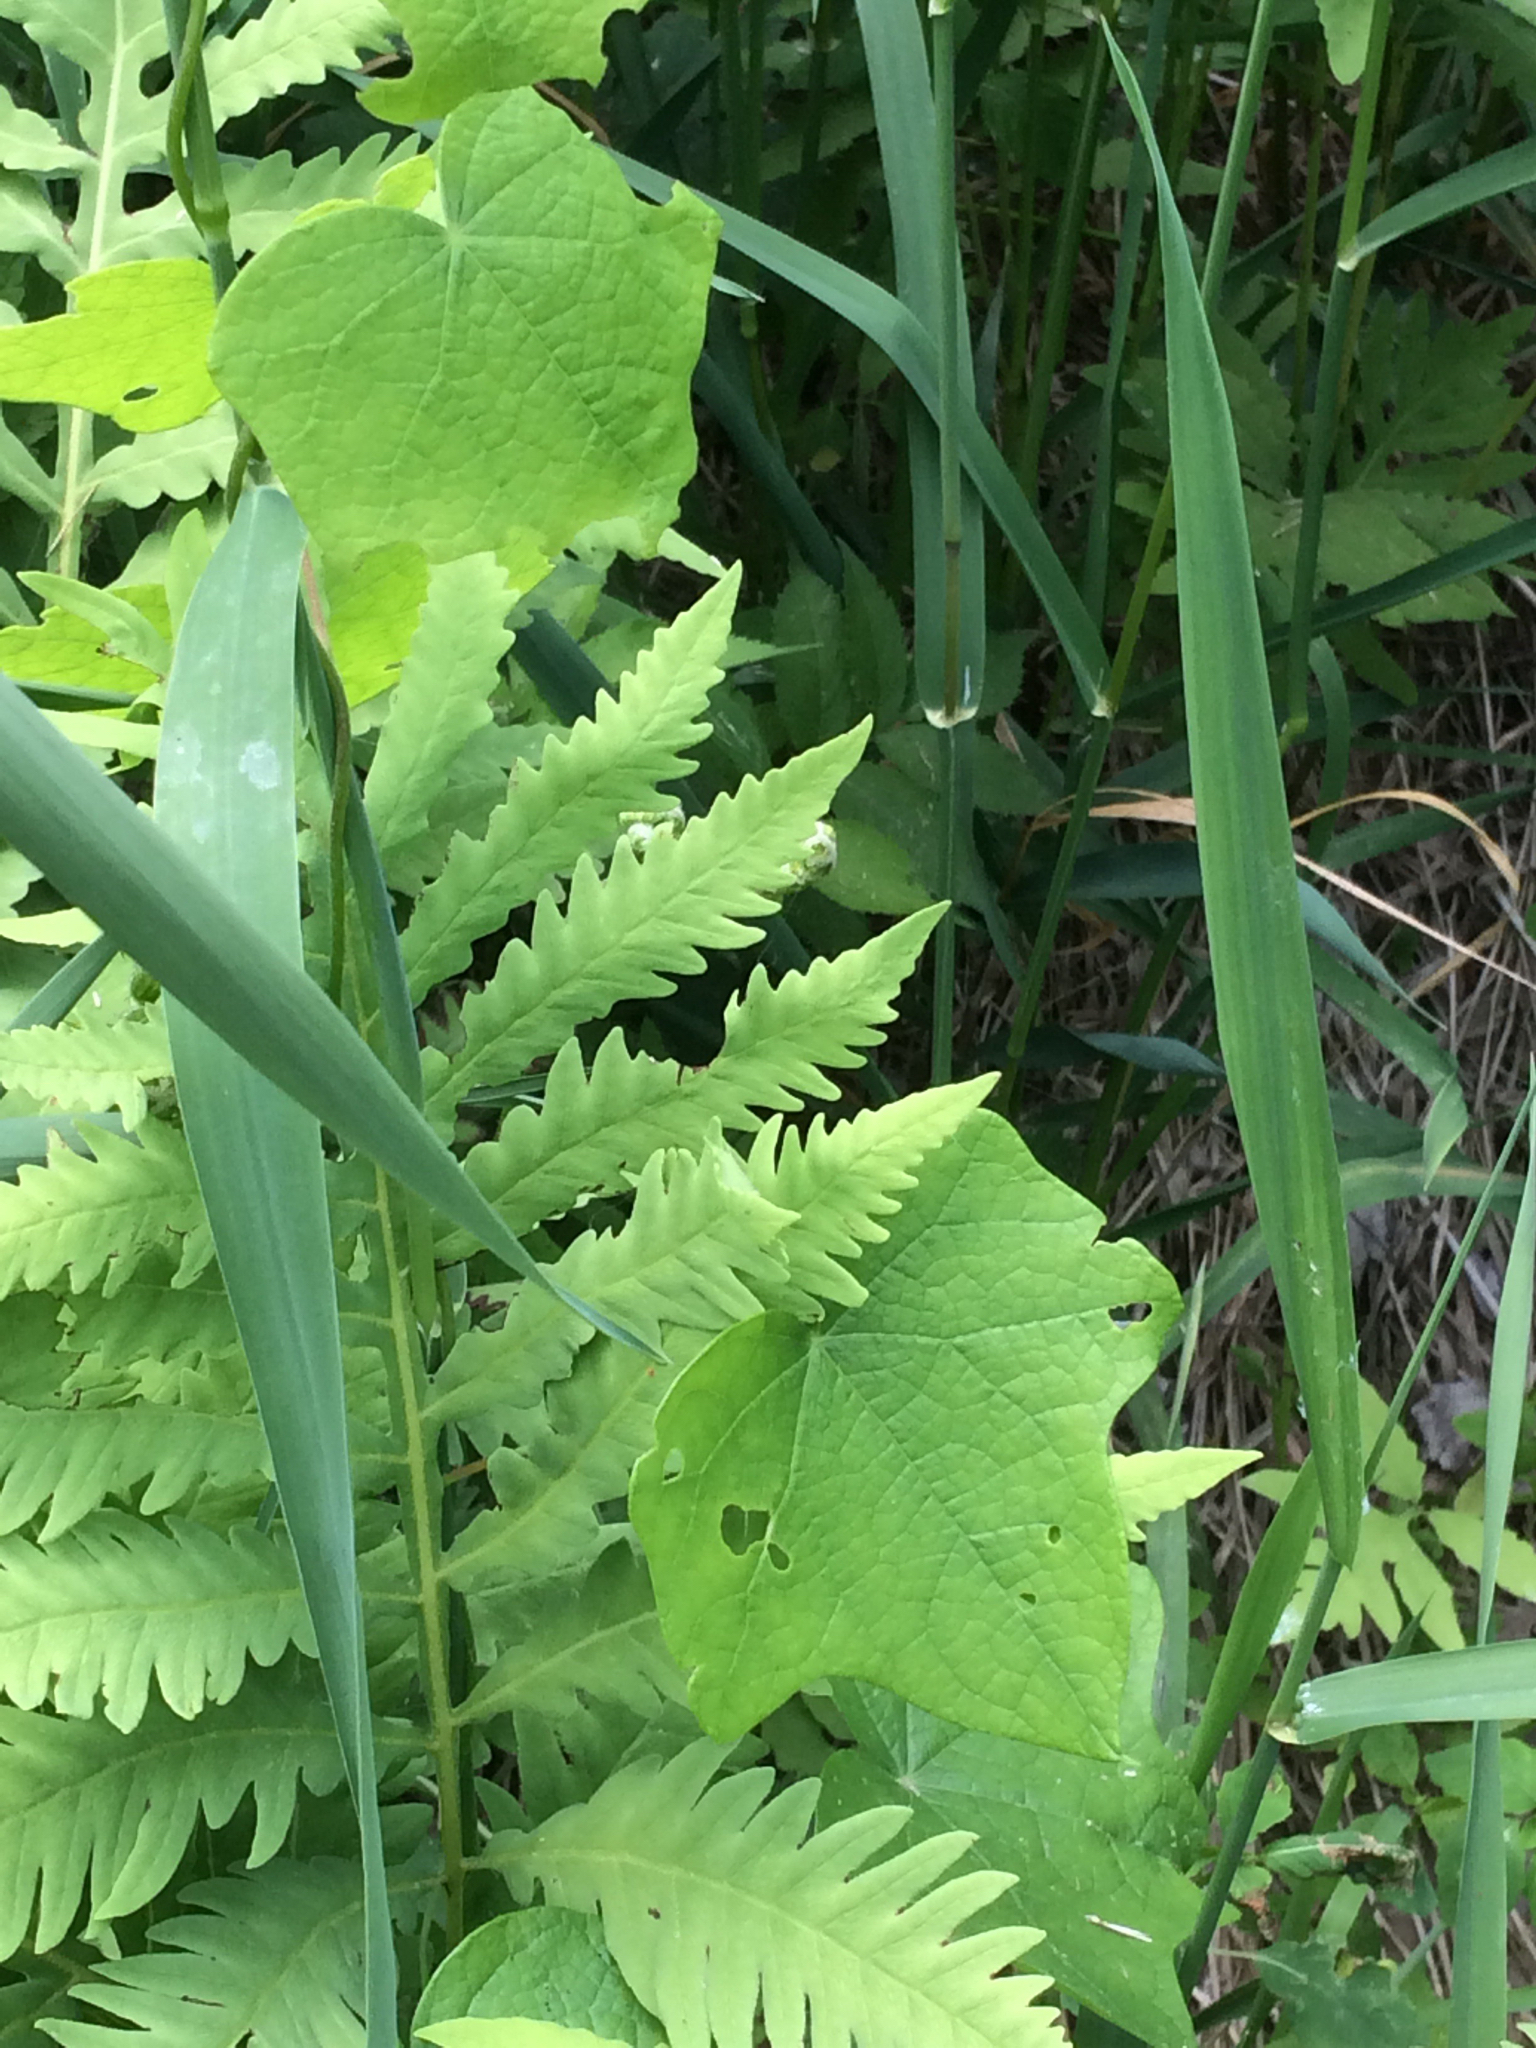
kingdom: Plantae
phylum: Tracheophyta
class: Magnoliopsida
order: Ranunculales
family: Menispermaceae
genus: Menispermum
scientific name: Menispermum canadense
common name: Moonseed
